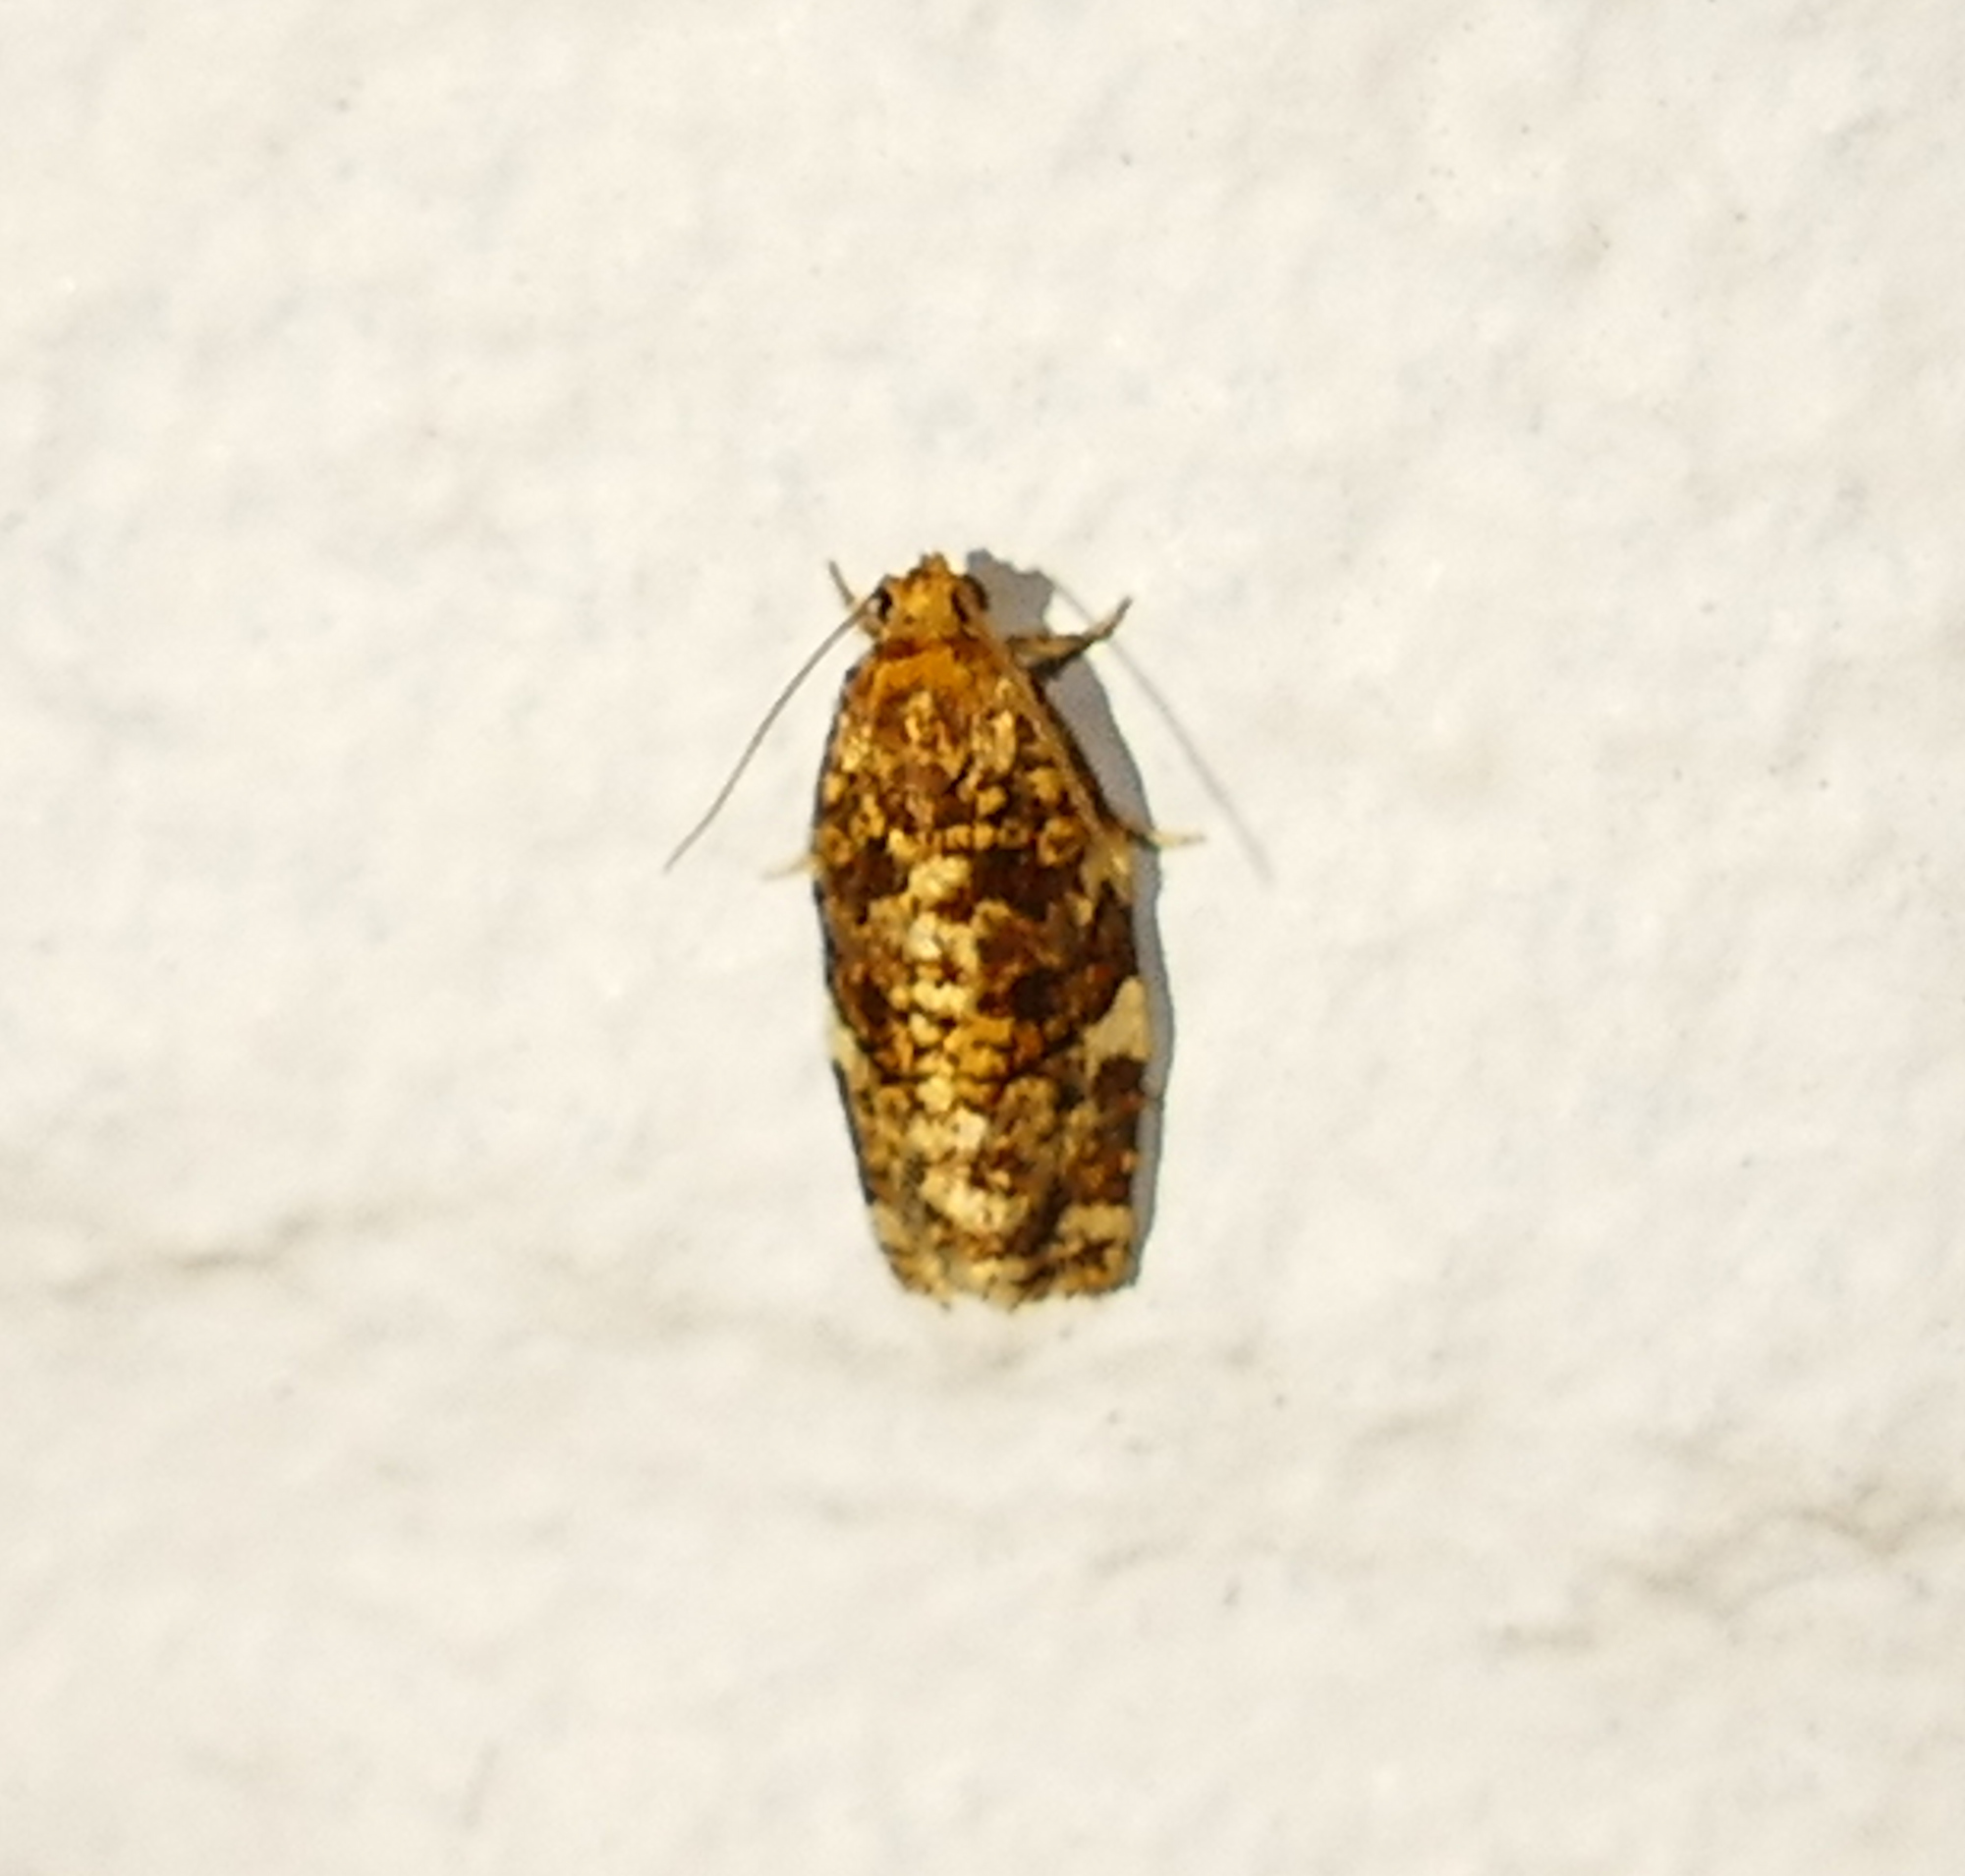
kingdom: Animalia
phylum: Arthropoda
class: Insecta
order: Lepidoptera
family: Tortricidae
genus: Archips
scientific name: Archips argyrospila
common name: Fruit-tree leafroller moth
